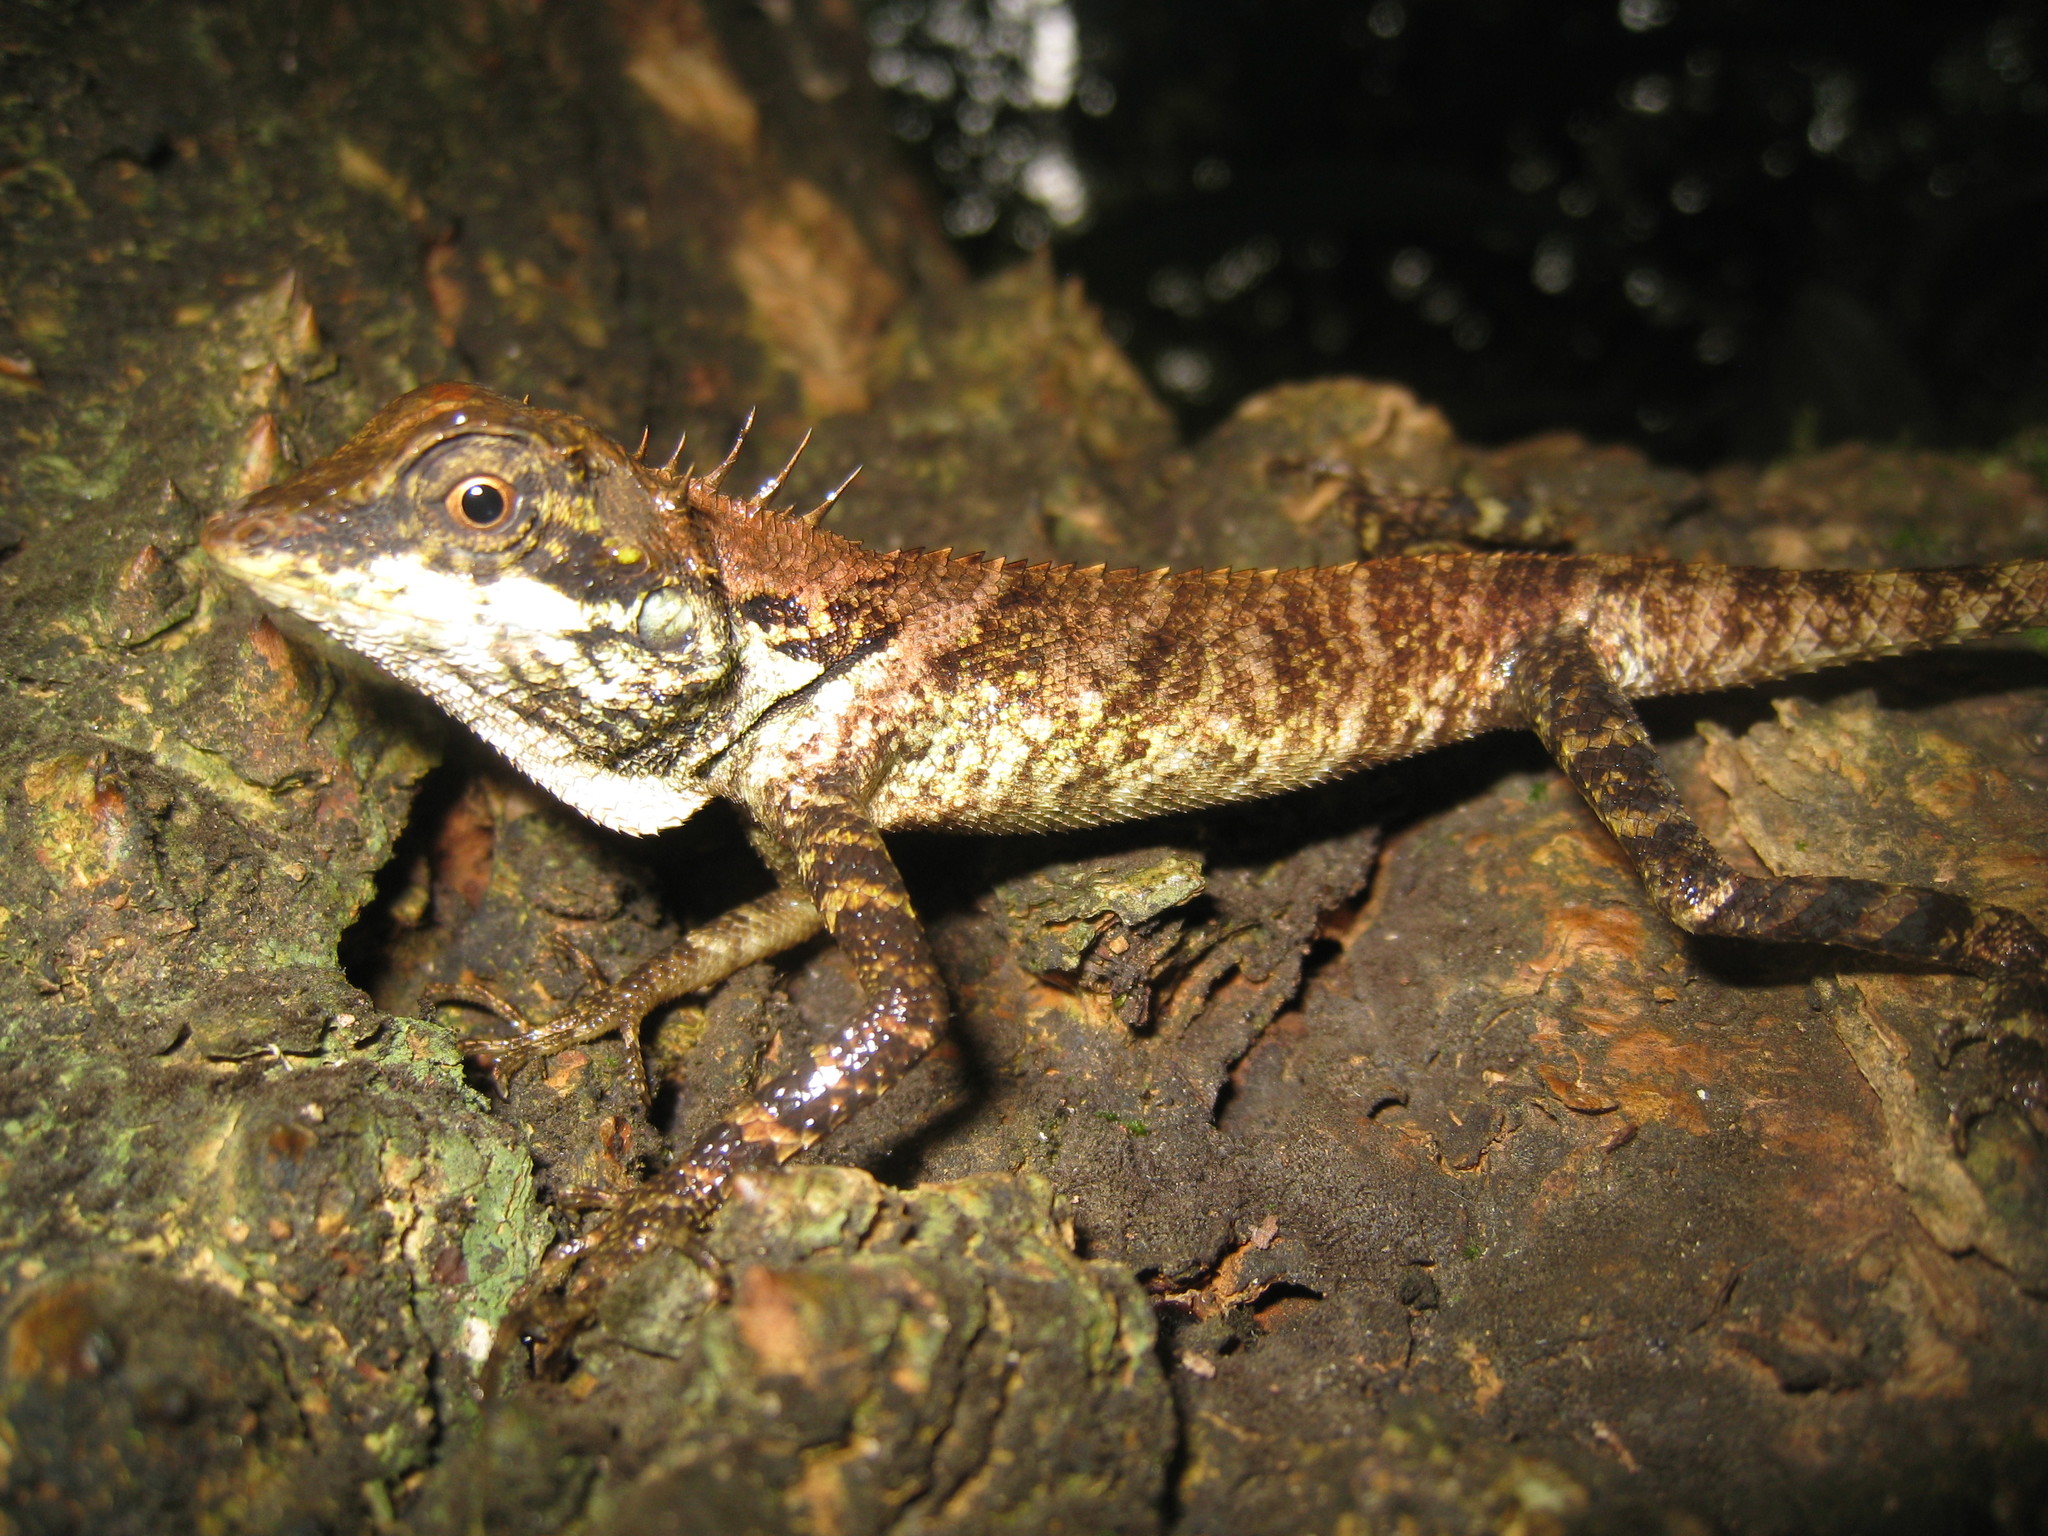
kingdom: Animalia
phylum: Chordata
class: Squamata
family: Agamidae
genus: Monilesaurus
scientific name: Monilesaurus ellioti
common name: Elliot's forest lizard
